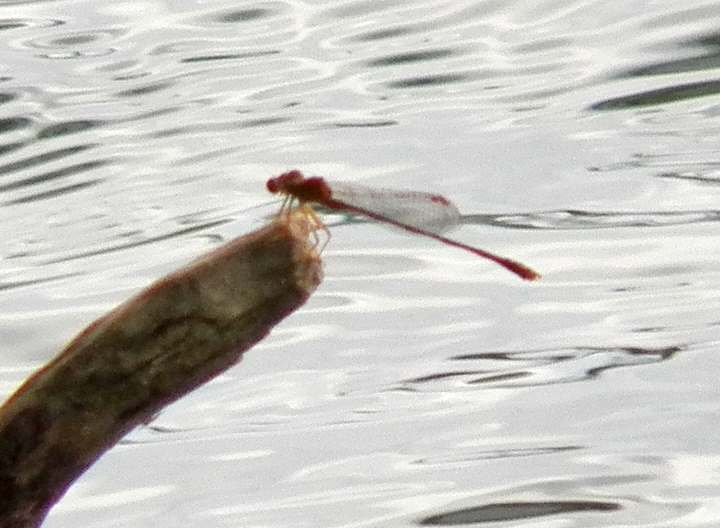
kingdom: Animalia
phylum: Arthropoda
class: Insecta
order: Odonata
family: Coenagrionidae
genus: Enallagma
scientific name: Enallagma signatum
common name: Orange bluet
